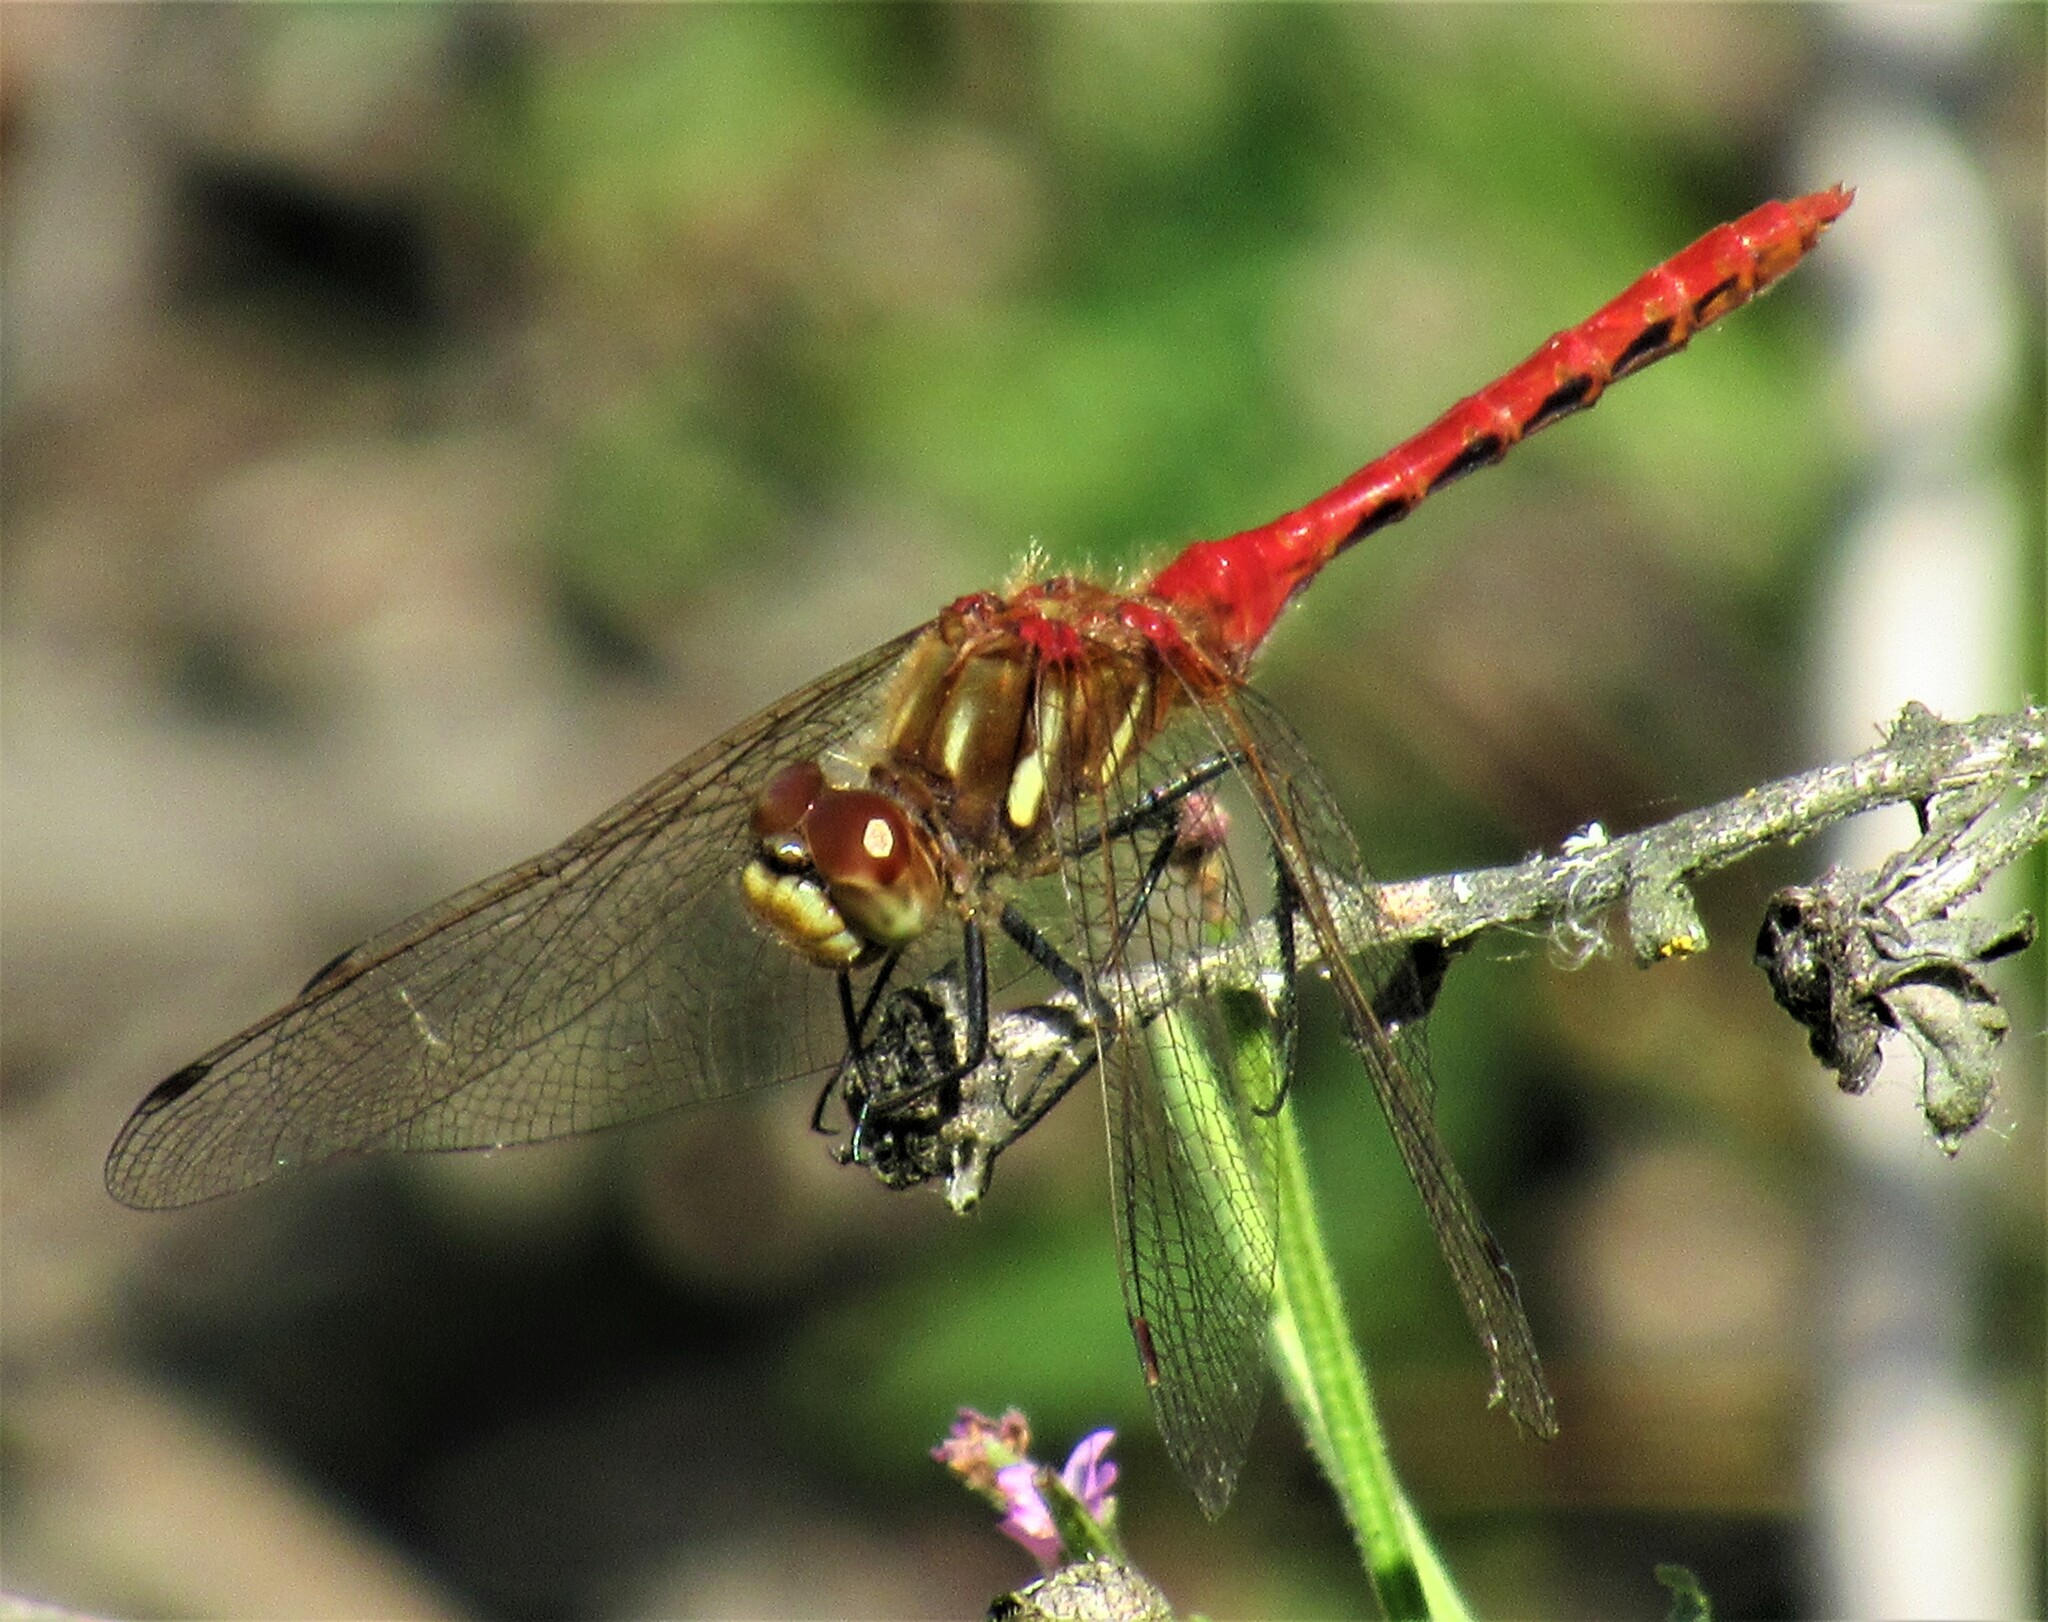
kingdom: Animalia
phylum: Arthropoda
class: Insecta
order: Odonata
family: Libellulidae
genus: Sympetrum
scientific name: Sympetrum pallipes
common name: Striped meadowhawk
